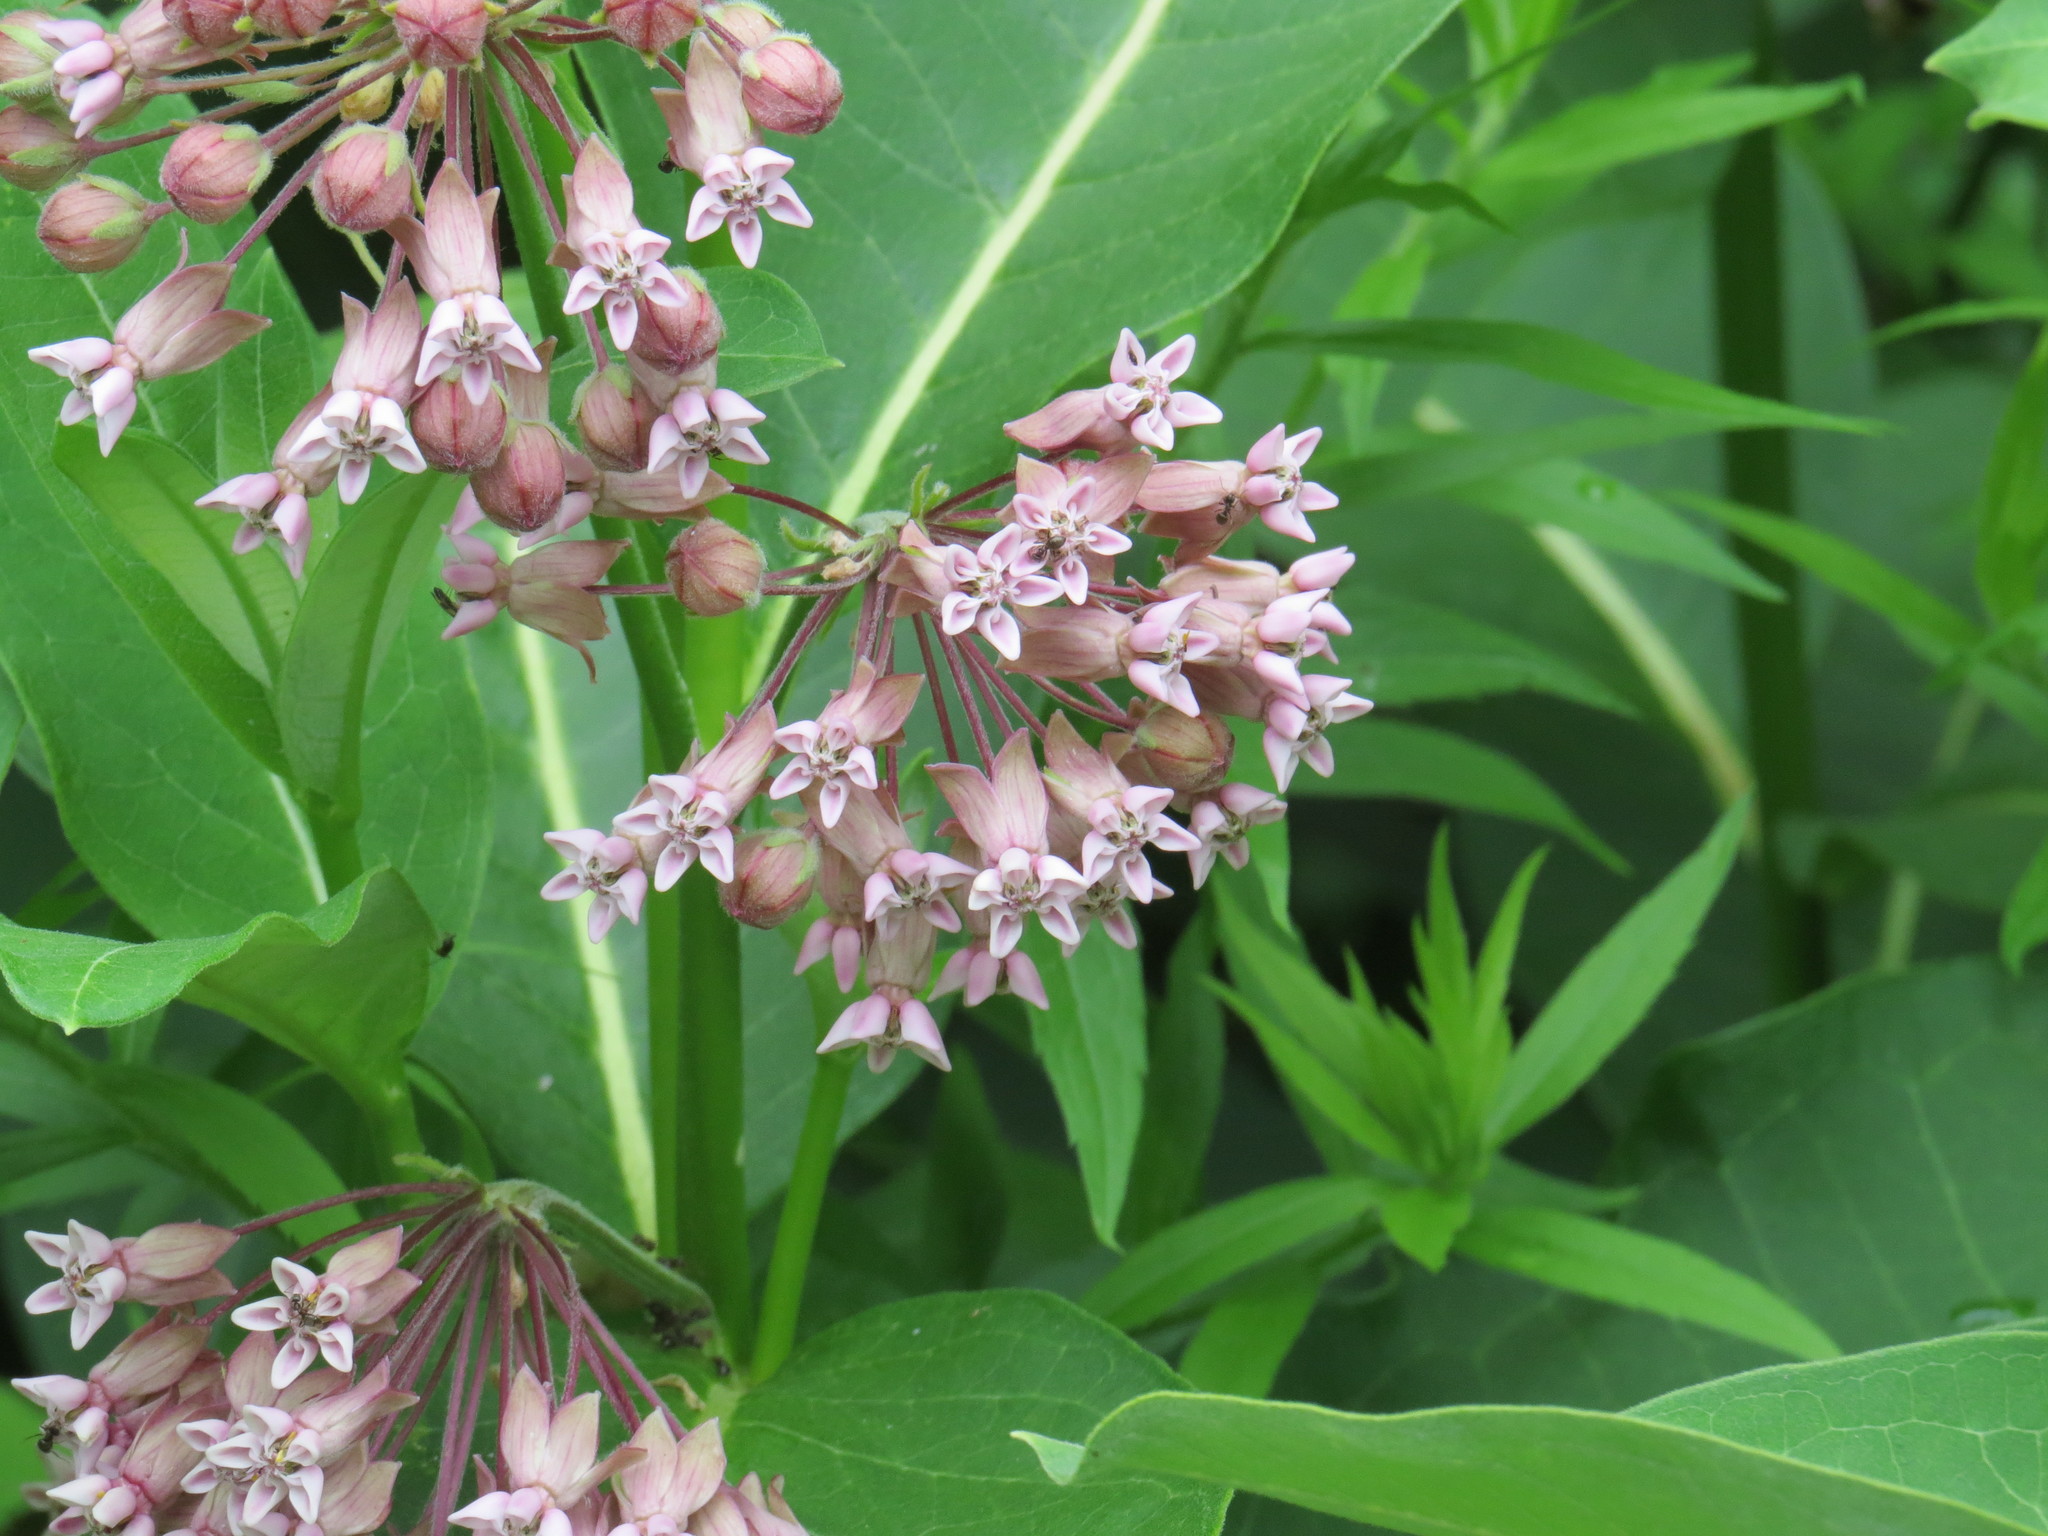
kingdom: Plantae
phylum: Tracheophyta
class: Magnoliopsida
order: Gentianales
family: Apocynaceae
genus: Asclepias
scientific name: Asclepias syriaca
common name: Common milkweed
